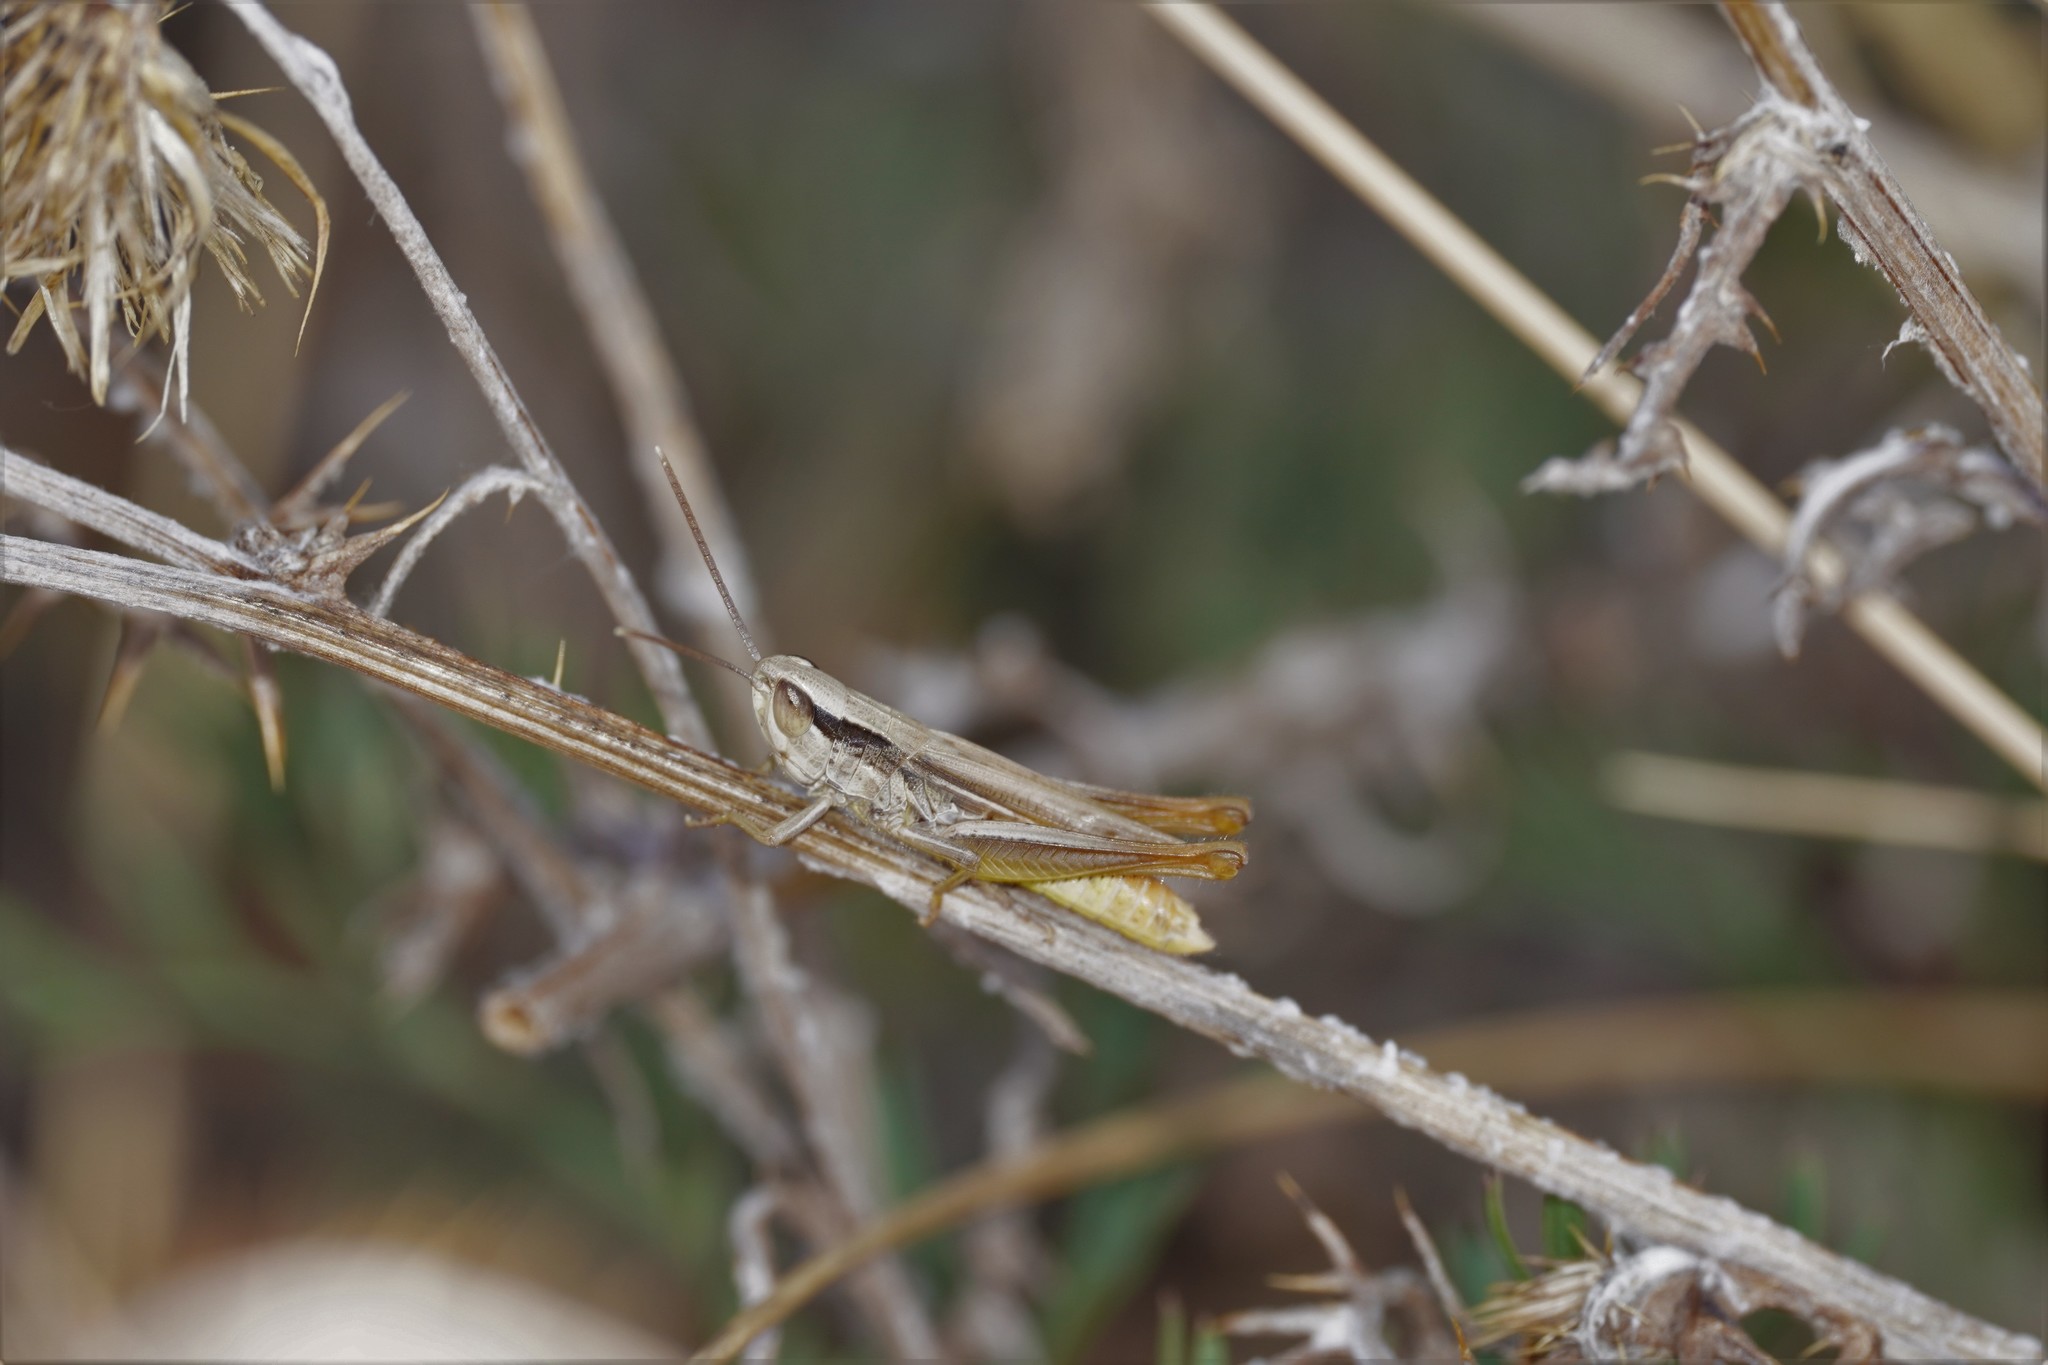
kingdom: Animalia
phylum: Arthropoda
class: Insecta
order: Orthoptera
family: Acrididae
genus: Euchorthippus
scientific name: Euchorthippus elegantulus
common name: Elegant straw grasshopper
